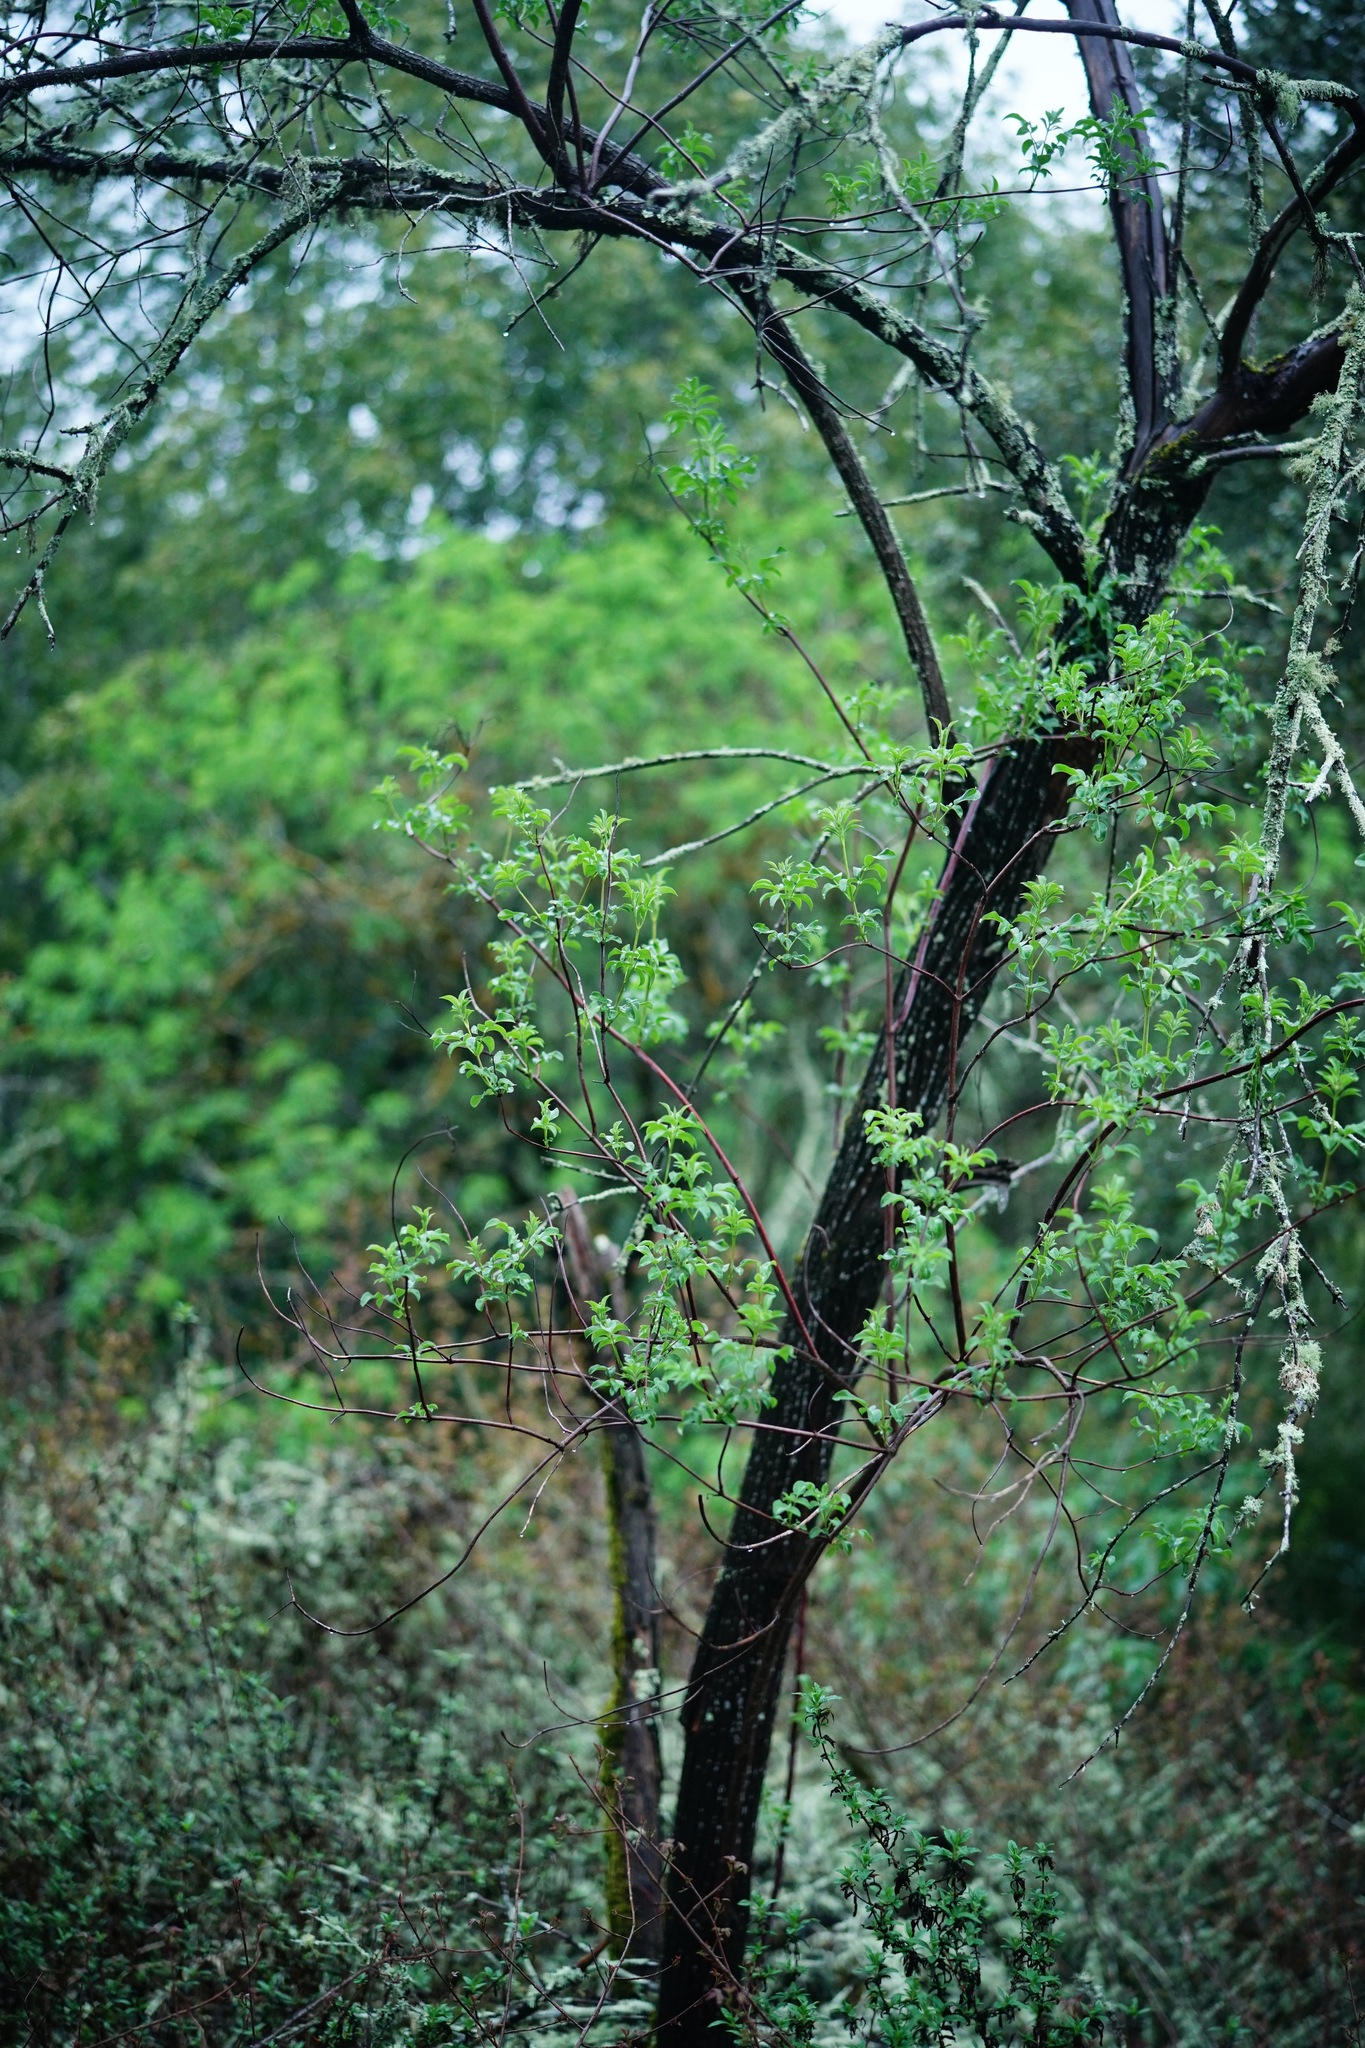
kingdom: Plantae
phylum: Tracheophyta
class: Magnoliopsida
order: Dipsacales
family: Viburnaceae
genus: Sambucus
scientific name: Sambucus cerulea
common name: Blue elder
